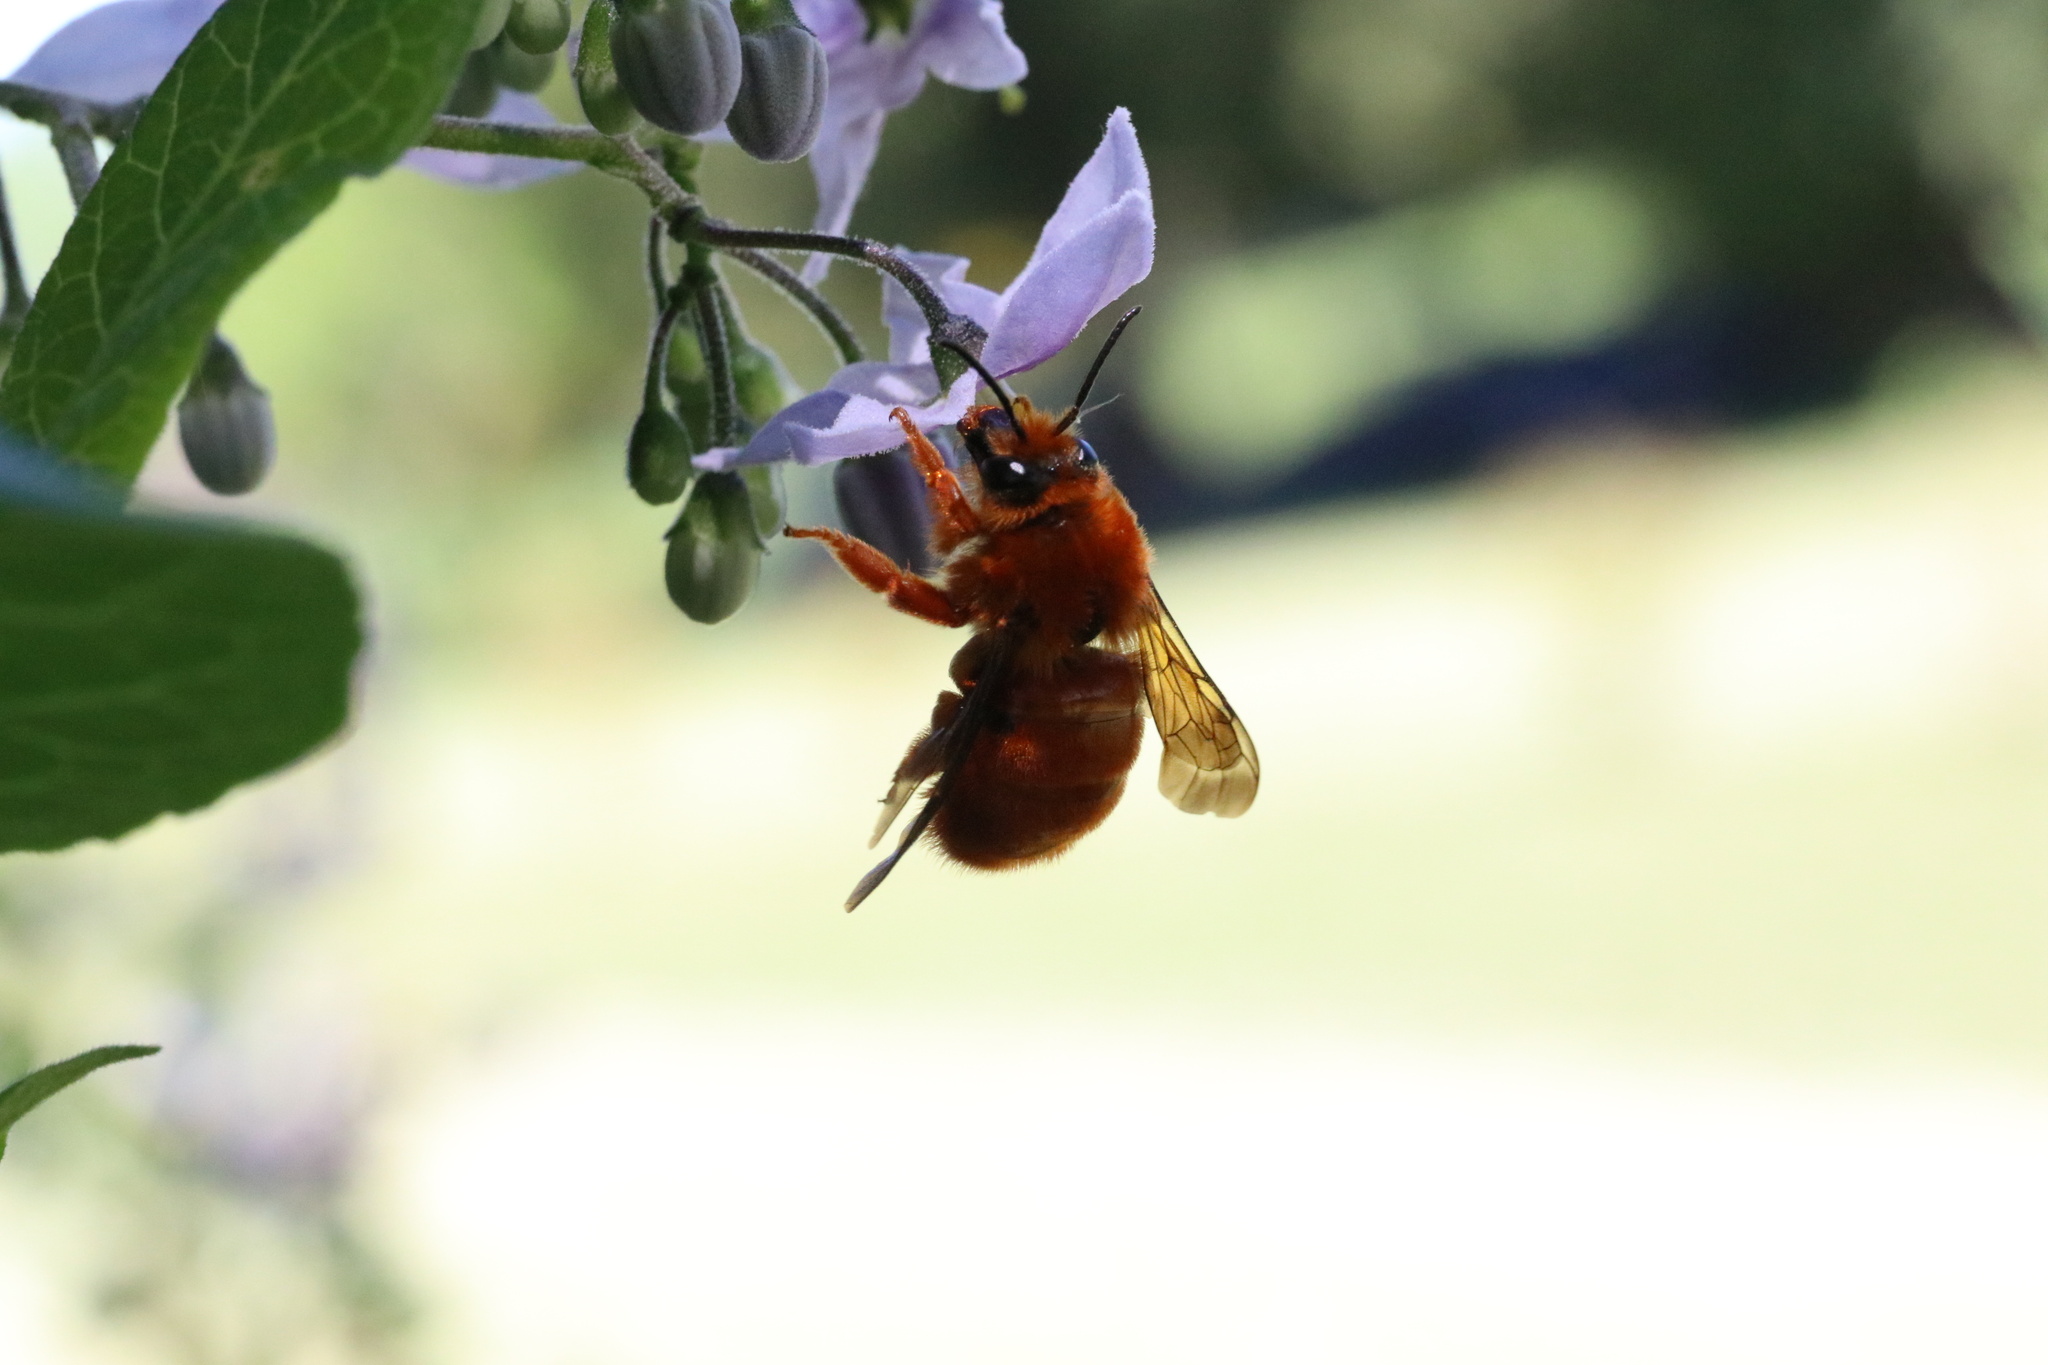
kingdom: Animalia
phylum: Arthropoda
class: Insecta
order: Hymenoptera
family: Colletidae
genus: Diphaglossa
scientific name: Diphaglossa gayi
